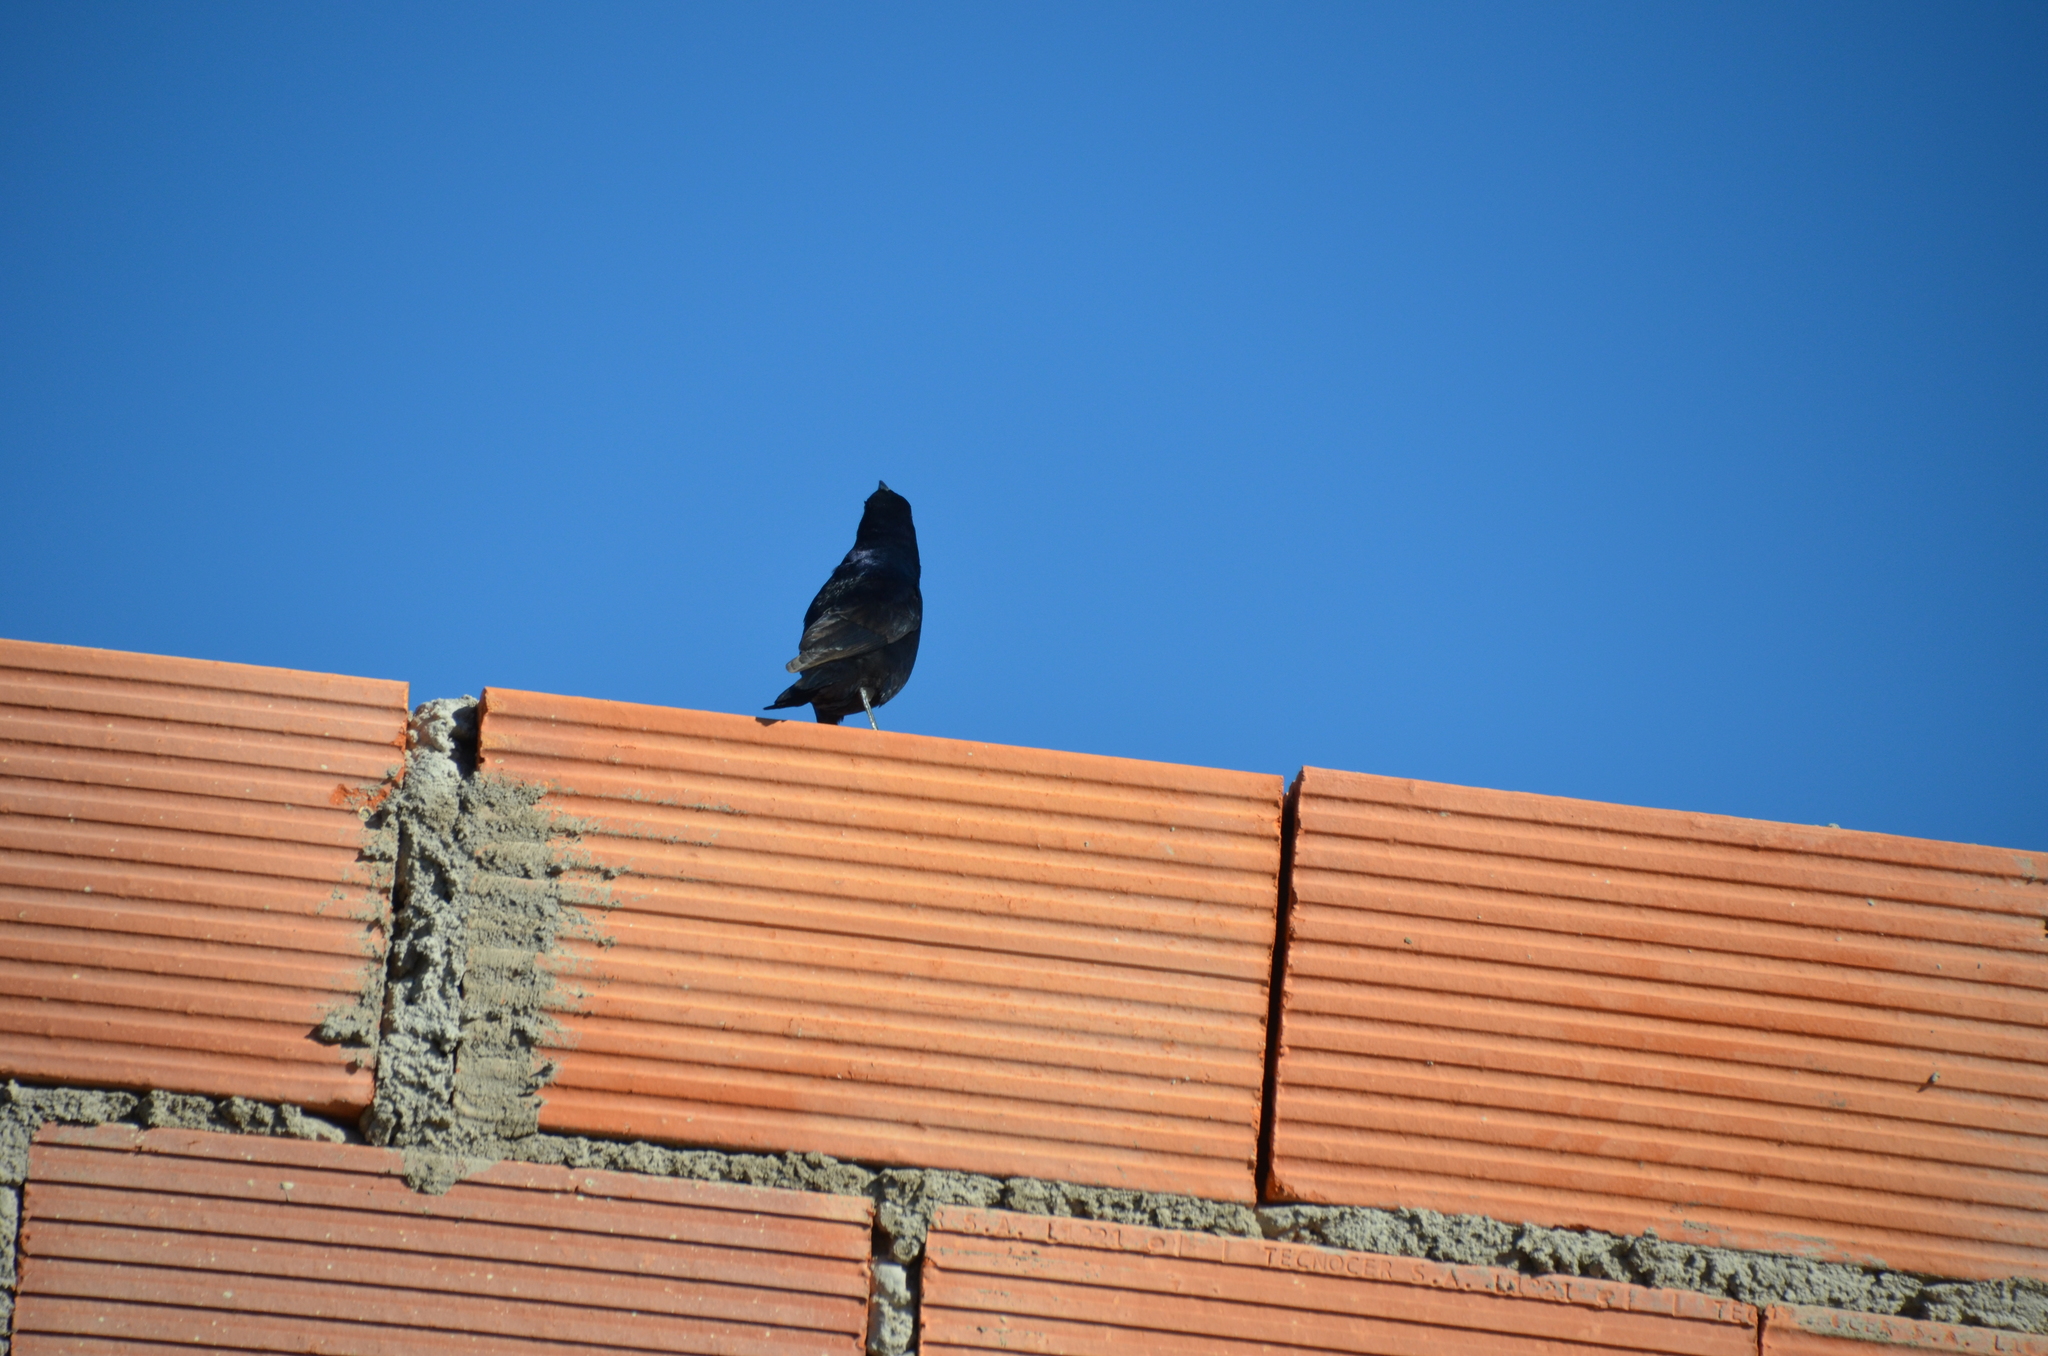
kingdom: Animalia
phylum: Chordata
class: Aves
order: Passeriformes
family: Icteridae
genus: Molothrus
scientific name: Molothrus bonariensis
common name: Shiny cowbird
